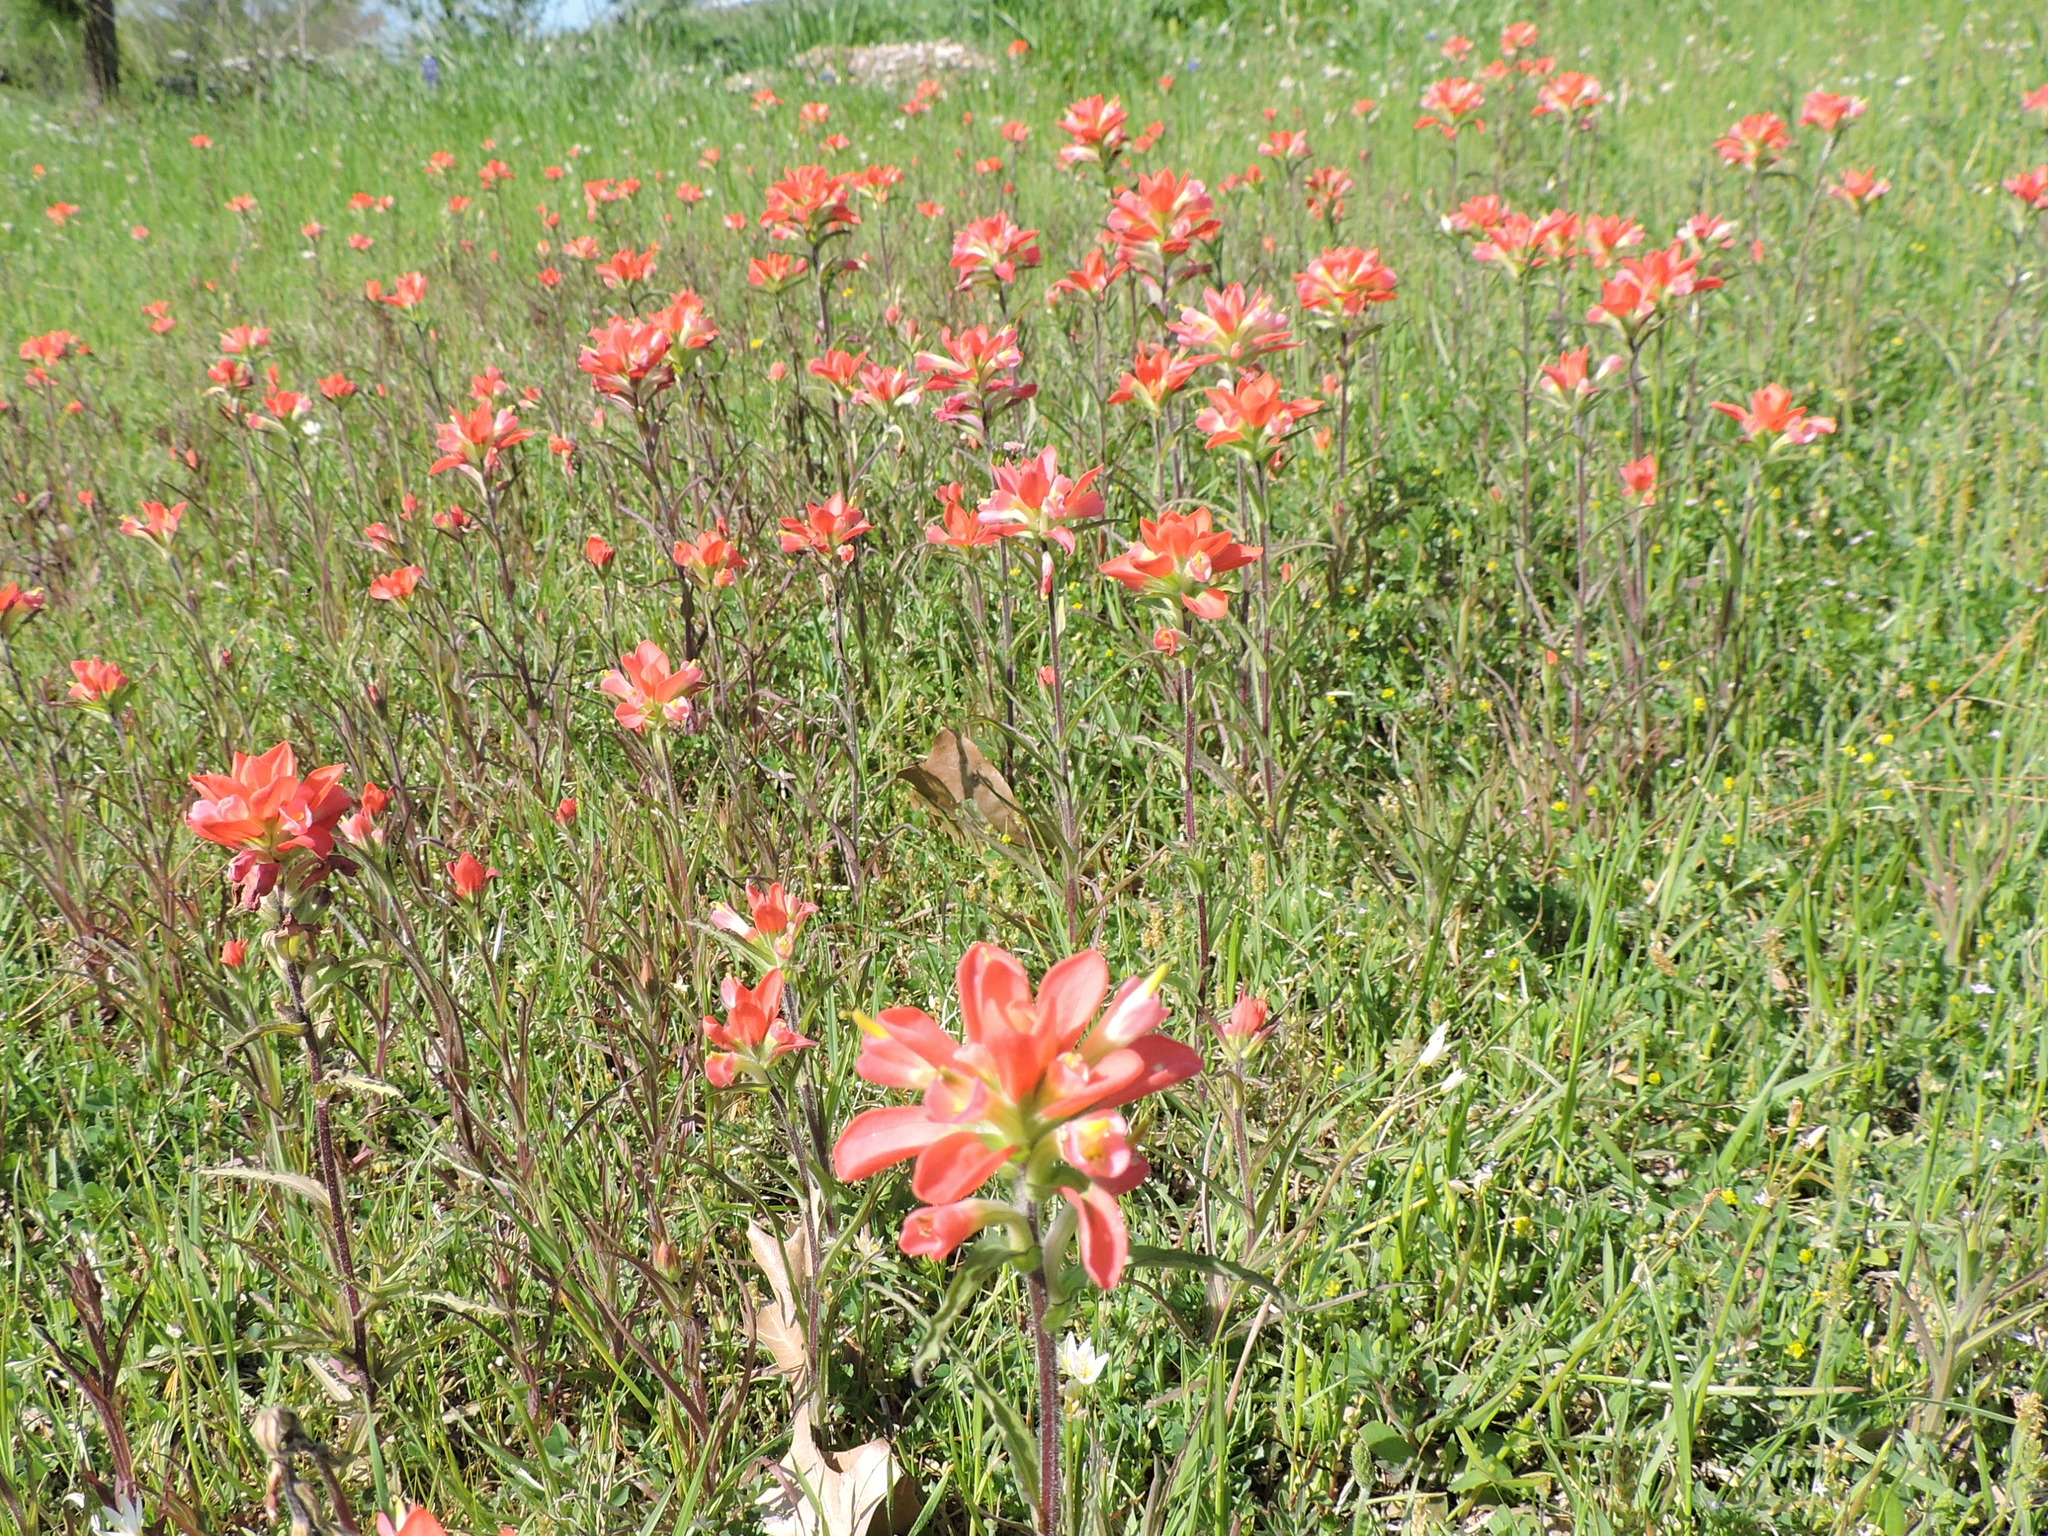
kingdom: Plantae
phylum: Tracheophyta
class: Magnoliopsida
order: Lamiales
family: Orobanchaceae
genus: Castilleja
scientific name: Castilleja indivisa
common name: Texas paintbrush
